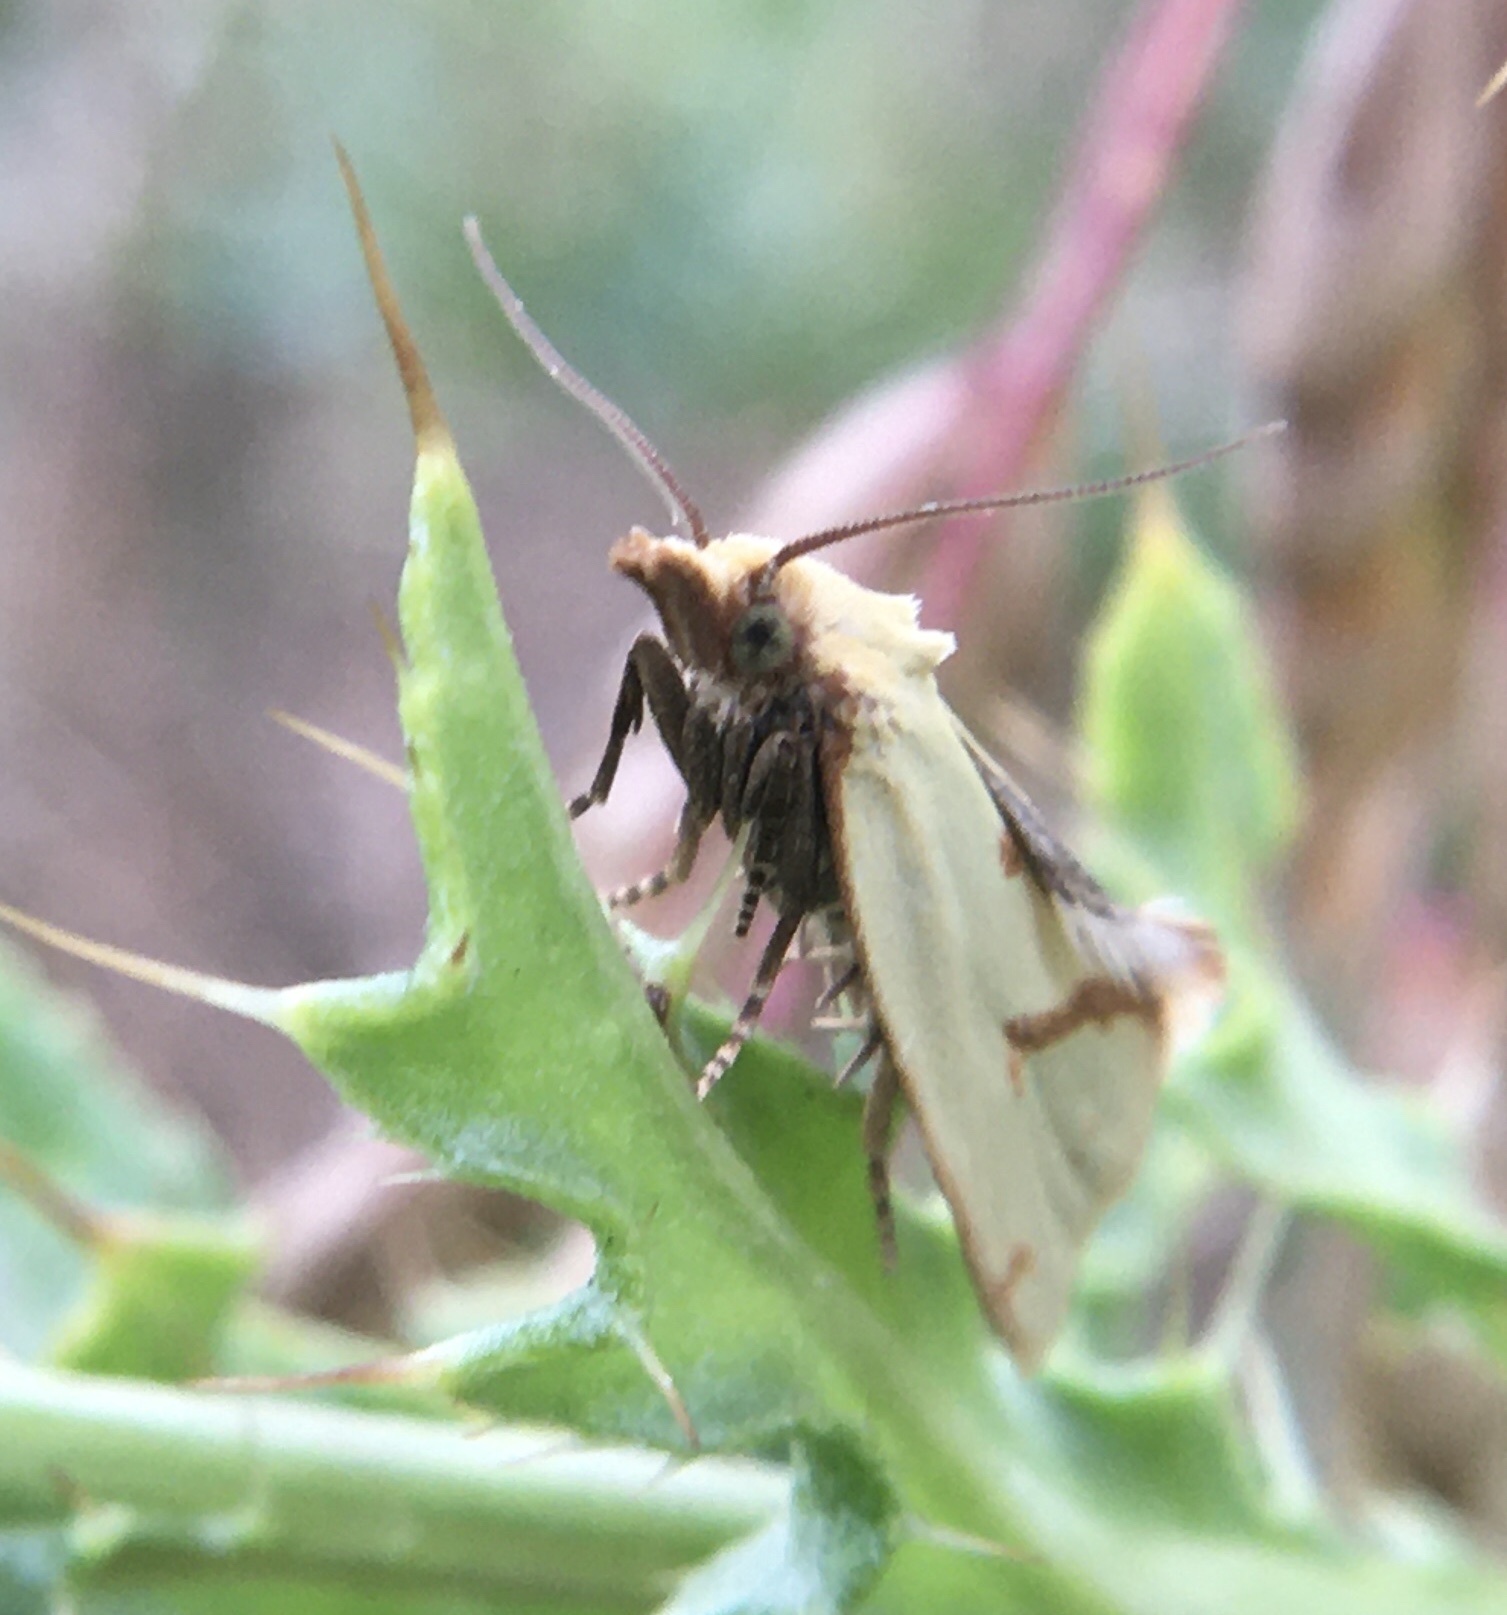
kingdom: Animalia
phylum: Arthropoda
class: Insecta
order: Lepidoptera
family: Tortricidae
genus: Agapeta
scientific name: Agapeta hamana
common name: Common yellow conch
